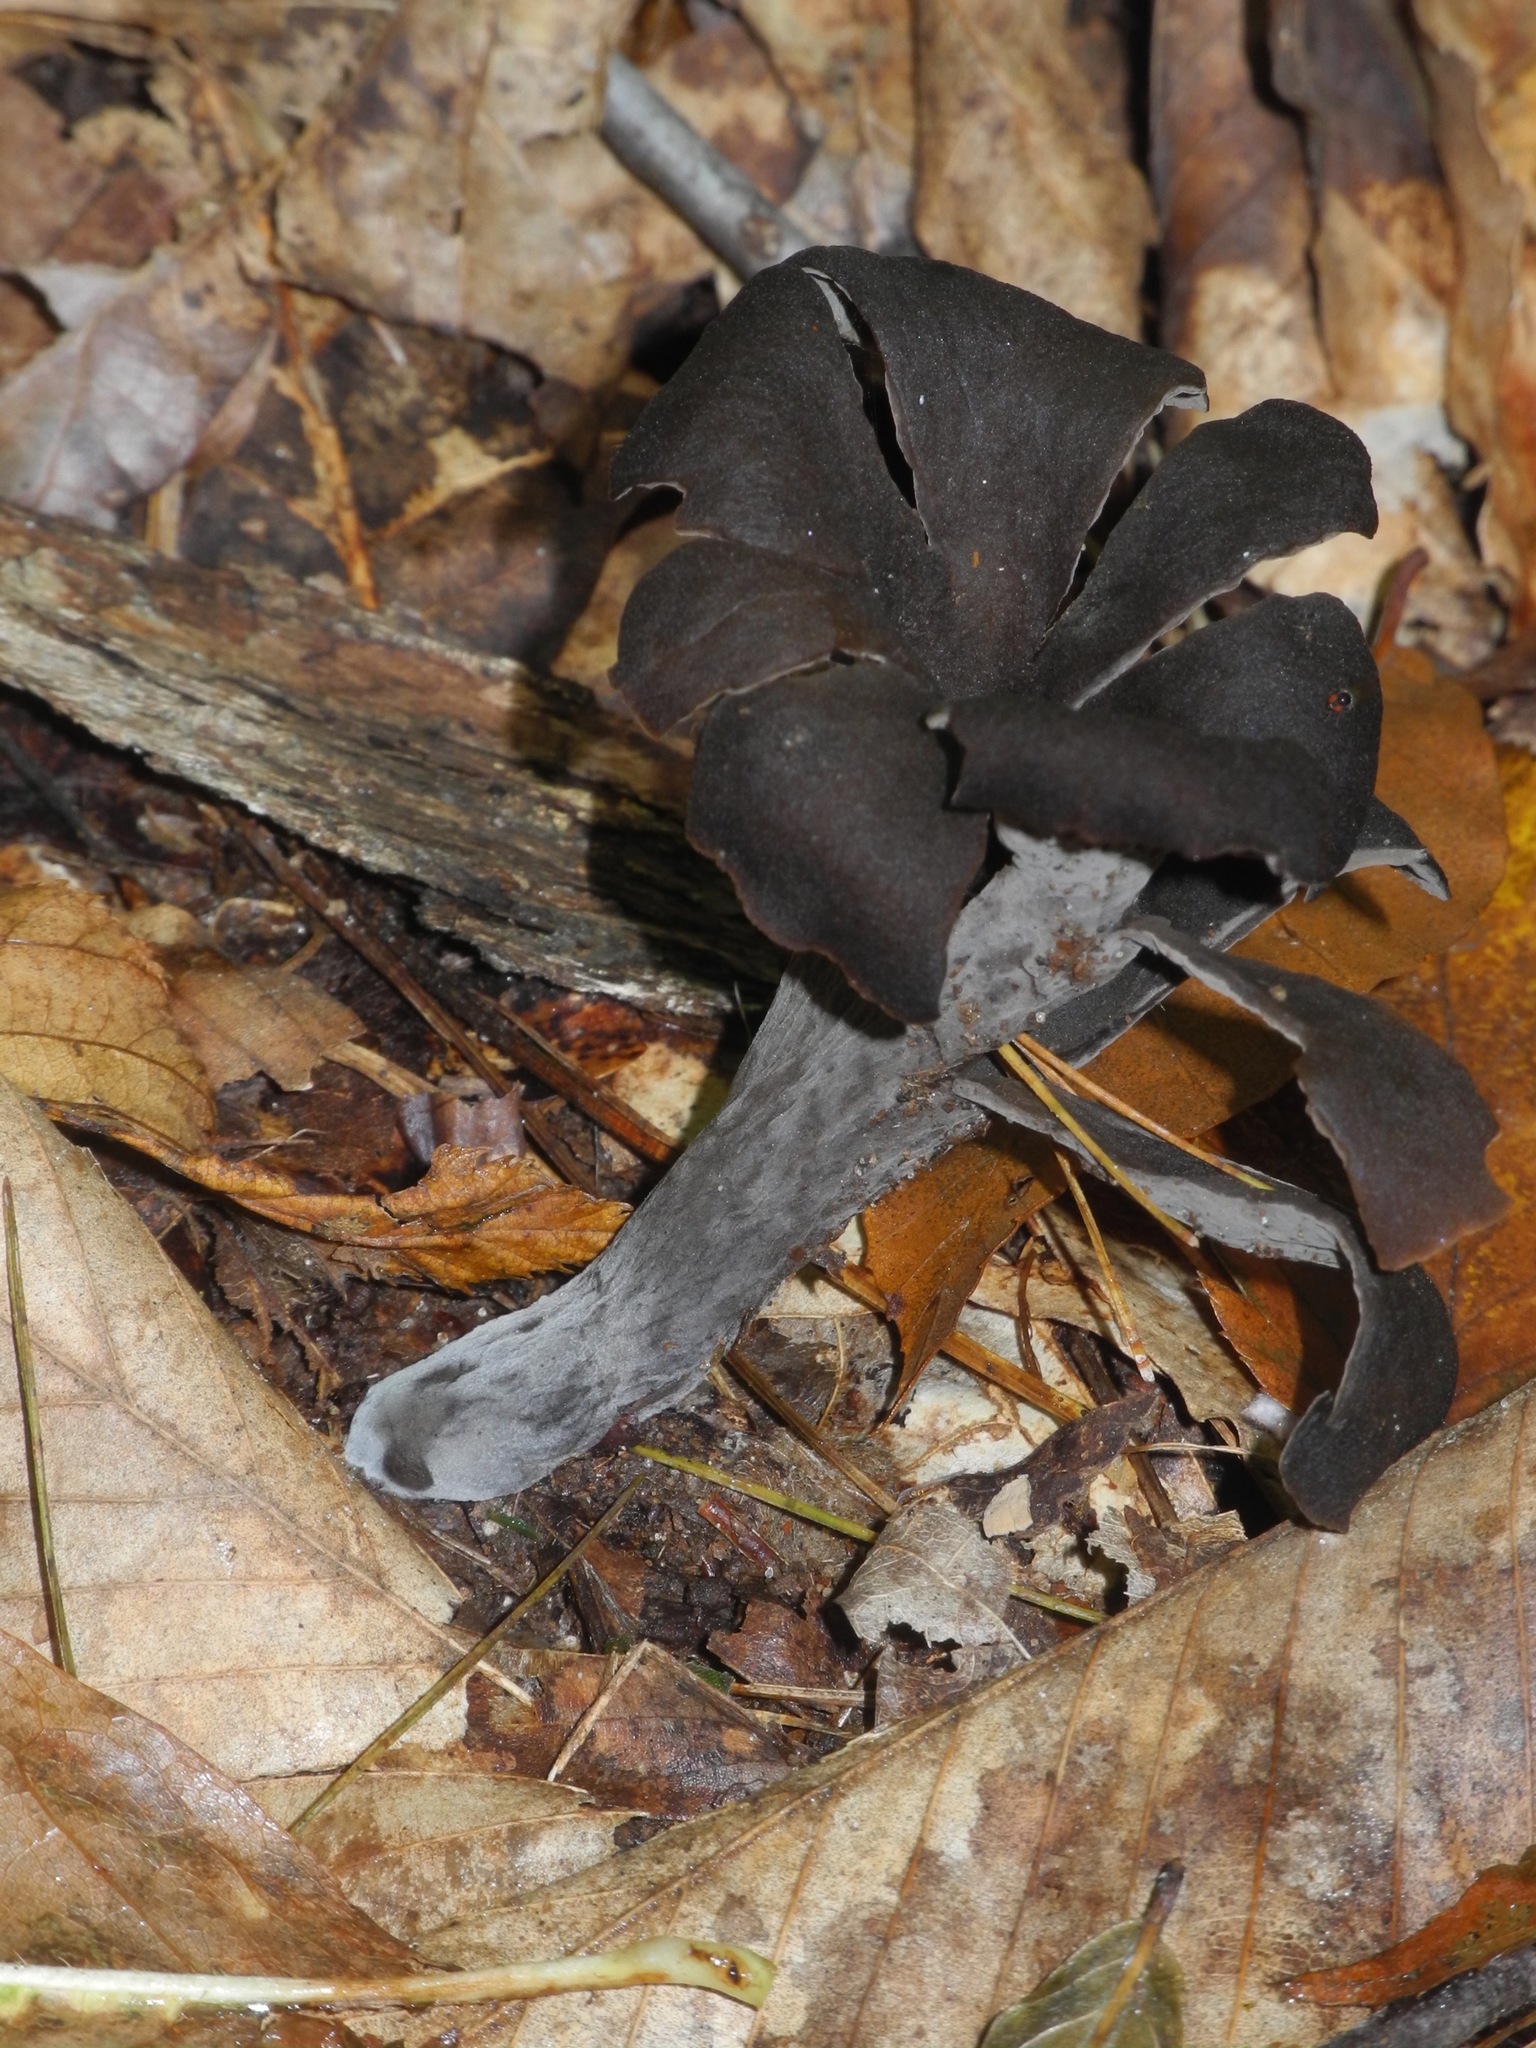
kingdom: Fungi
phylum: Basidiomycota
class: Agaricomycetes
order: Cantharellales
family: Hydnaceae
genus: Craterellus
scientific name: Craterellus cornucopioides
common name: Horn of plenty
